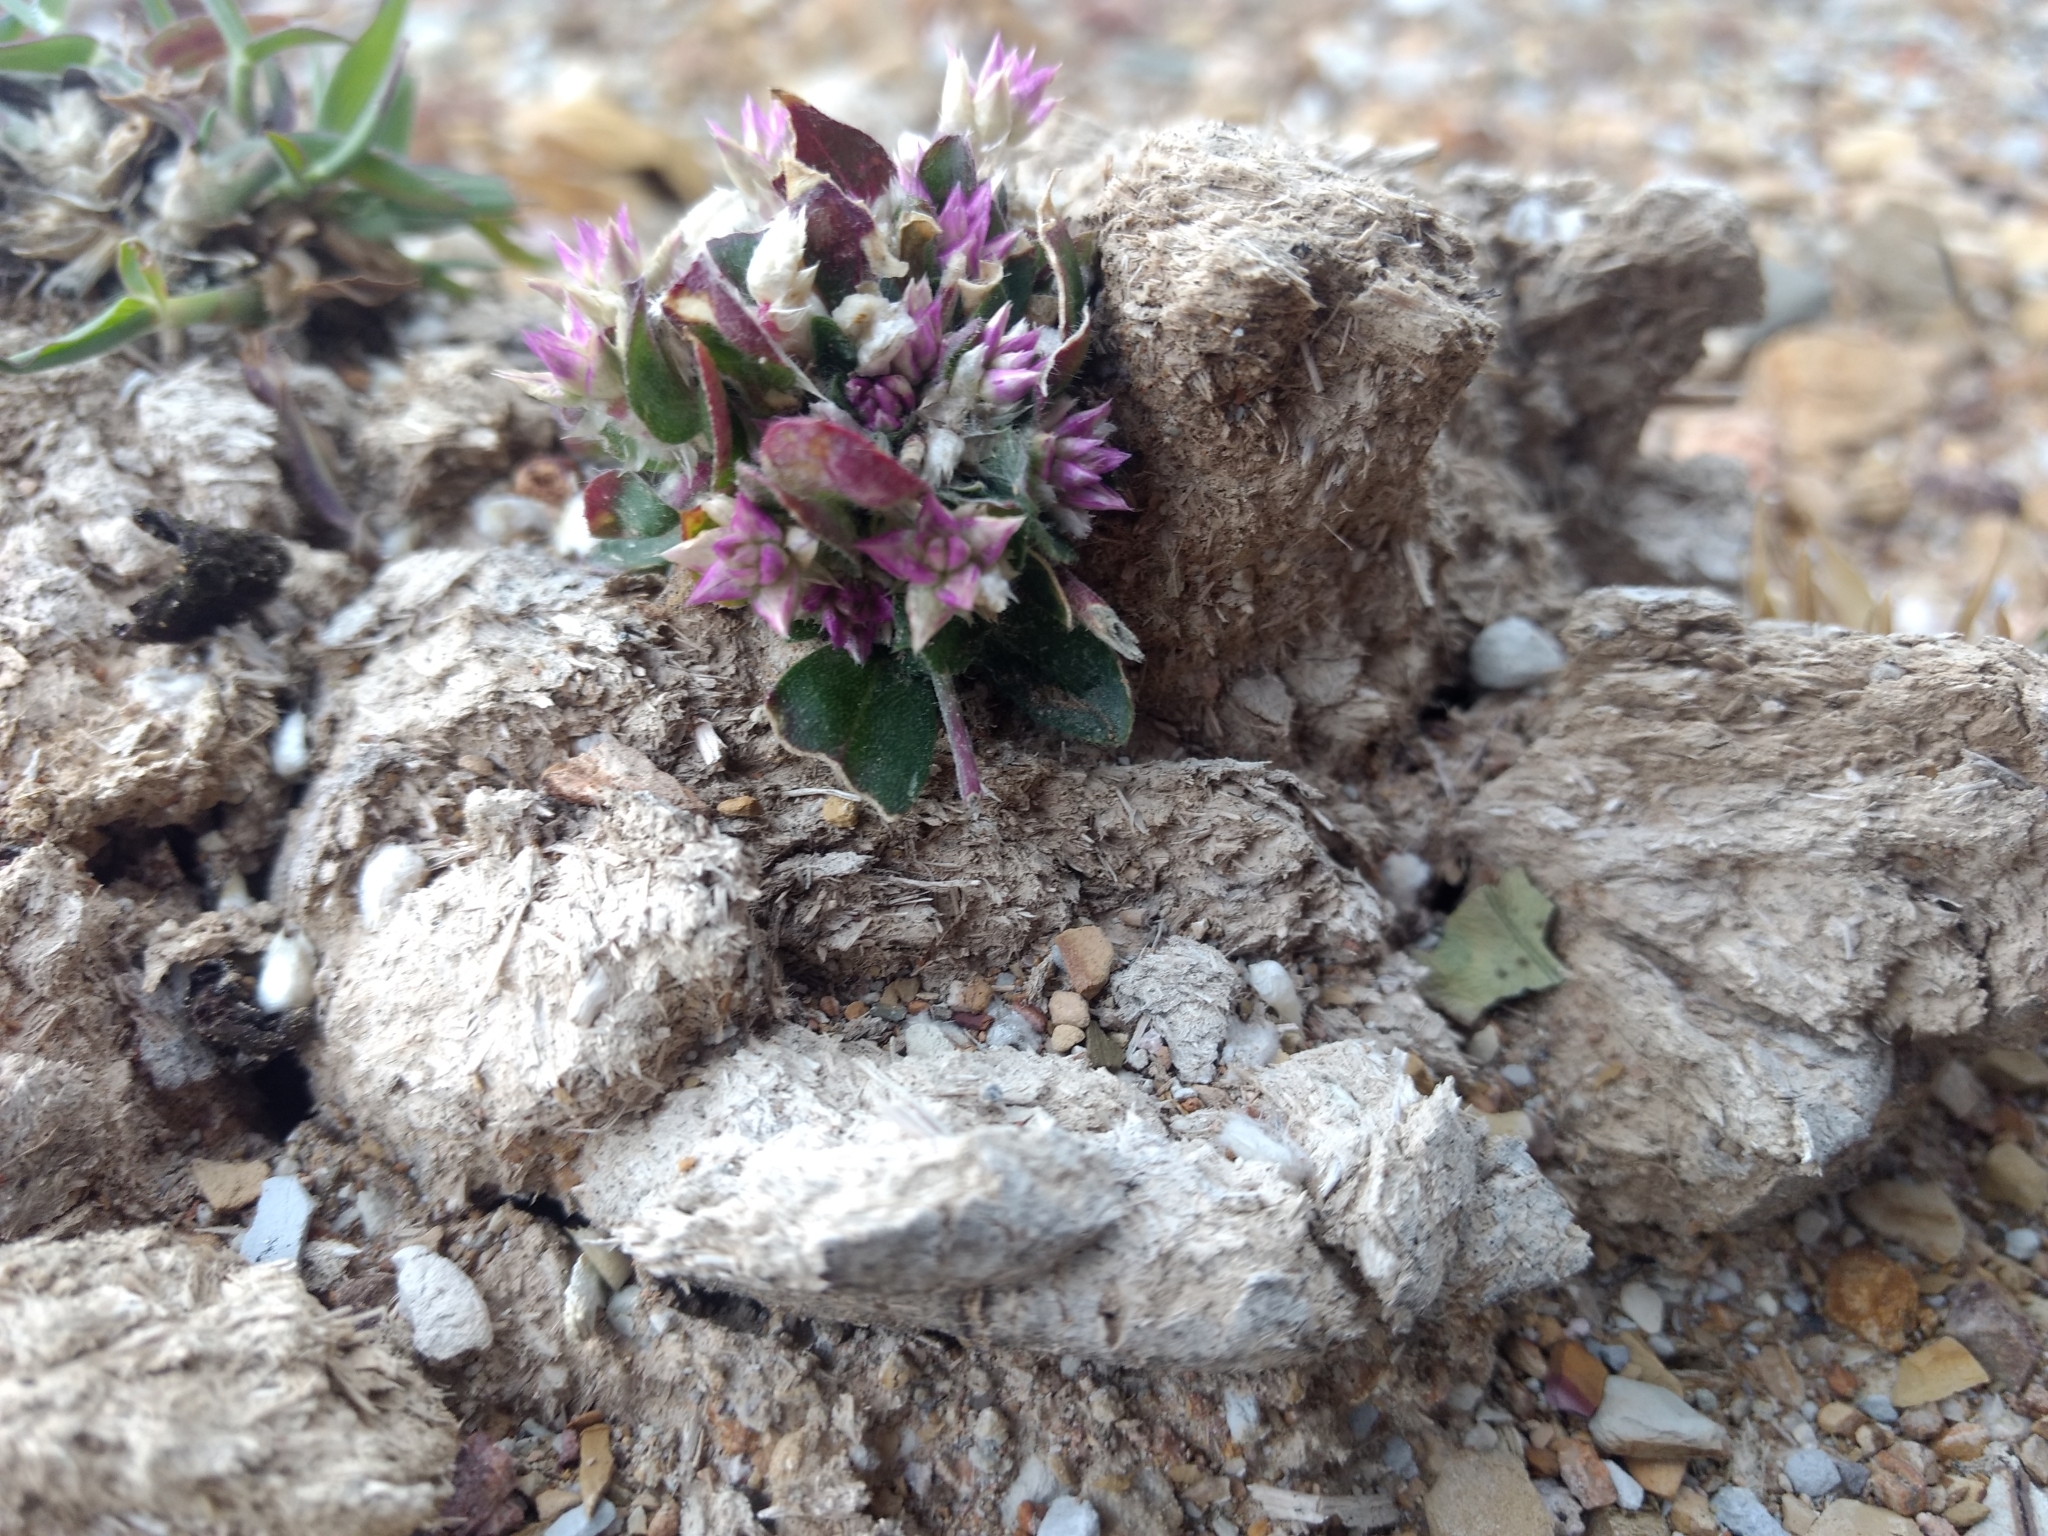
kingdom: Plantae
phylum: Tracheophyta
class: Magnoliopsida
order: Caryophyllales
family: Amaranthaceae
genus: Gomphrena
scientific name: Gomphrena serrata
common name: Arrasa con todo
